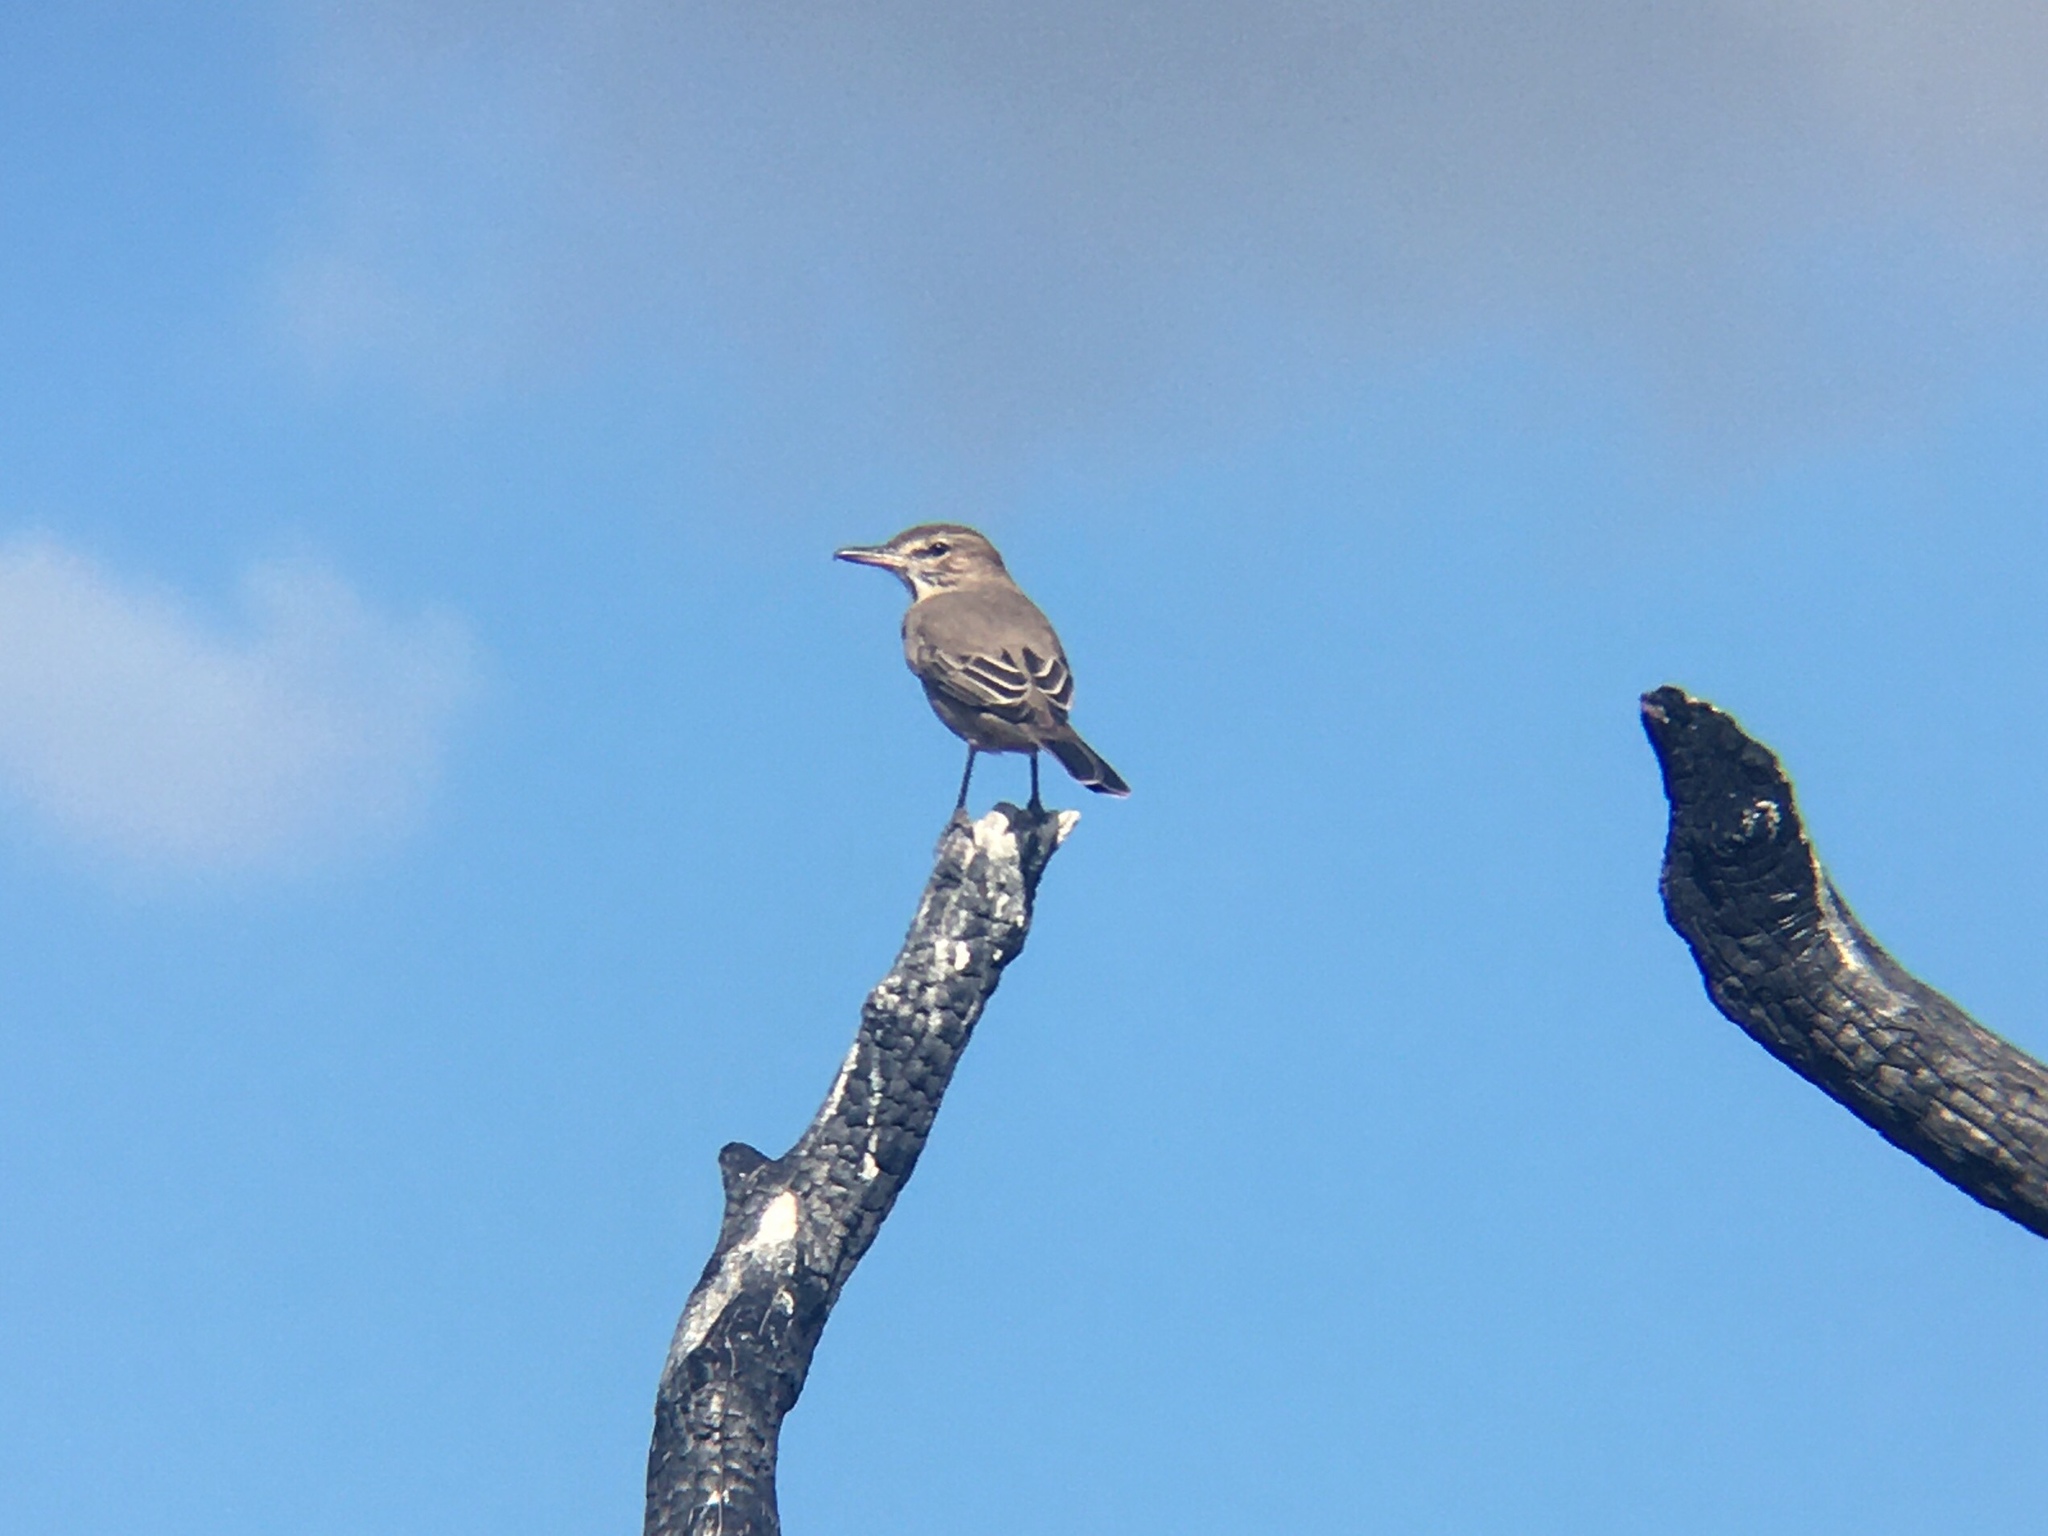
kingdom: Animalia
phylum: Chordata
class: Aves
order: Passeriformes
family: Tyrannidae
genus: Agriornis
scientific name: Agriornis micropterus
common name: Grey-bellied shrike-tyrant
